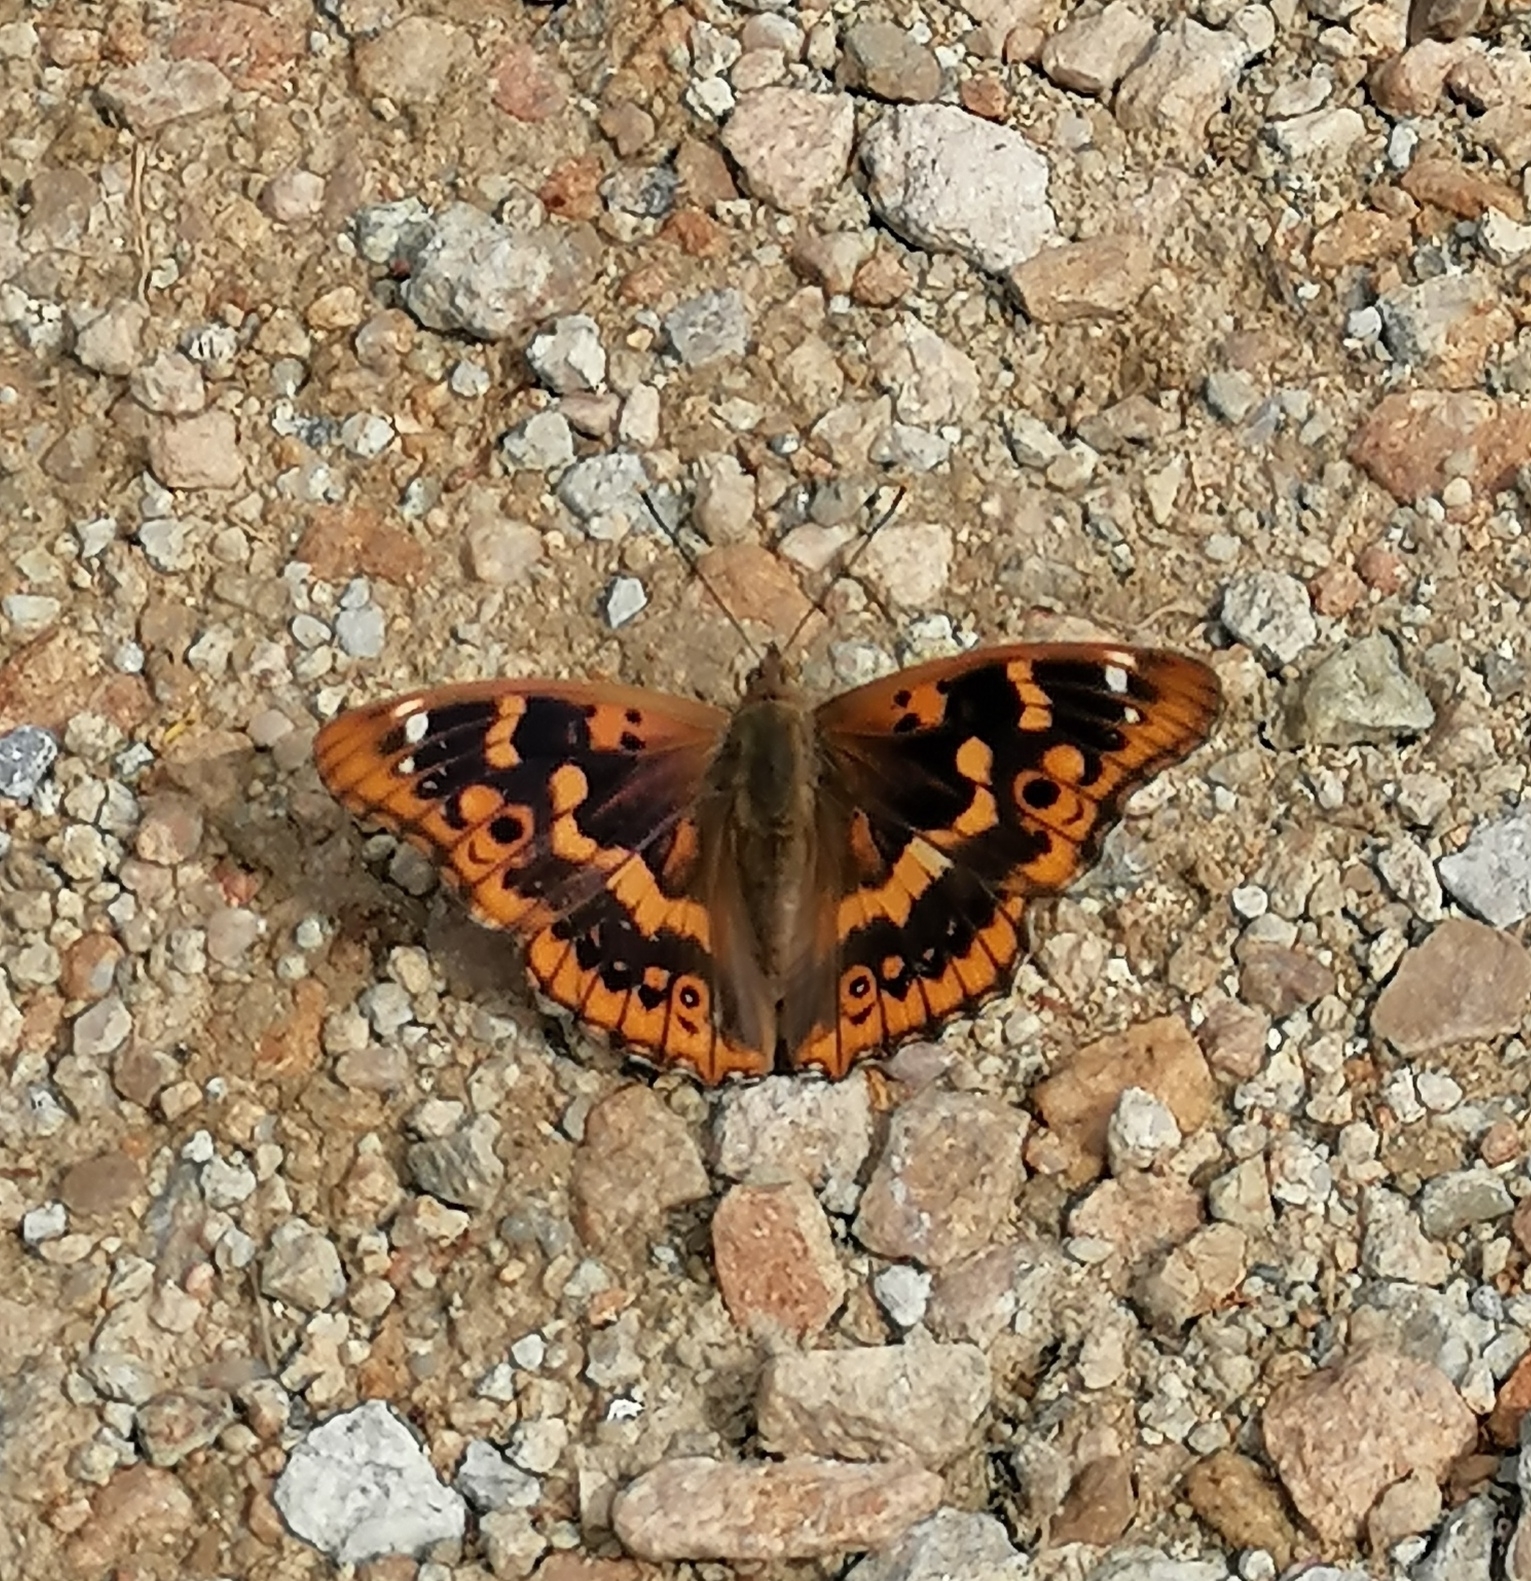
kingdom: Animalia
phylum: Arthropoda
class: Insecta
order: Lepidoptera
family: Nymphalidae
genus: Apatura
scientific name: Apatura ilia
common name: Lesser purple emperor
